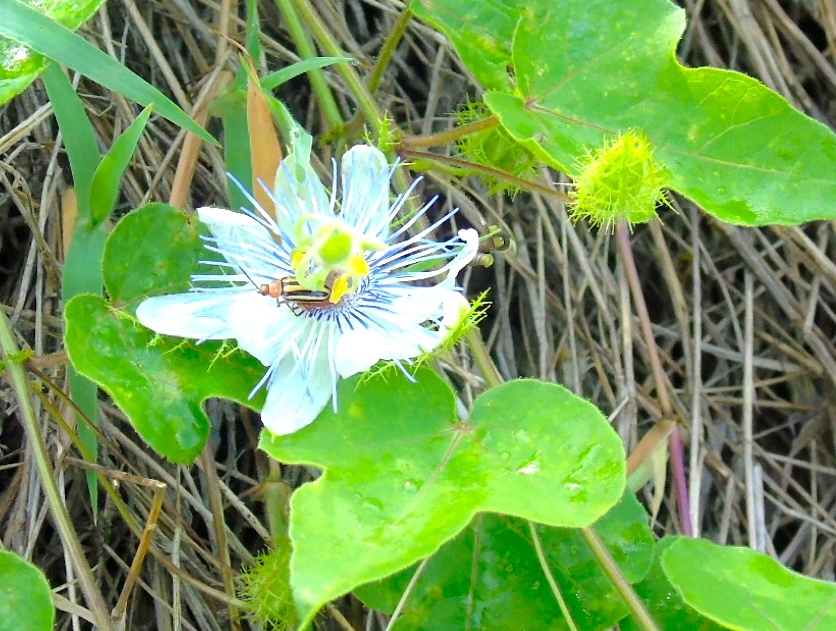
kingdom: Plantae
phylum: Tracheophyta
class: Magnoliopsida
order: Malpighiales
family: Passifloraceae
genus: Passiflora
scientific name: Passiflora foetida
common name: Fetid passionflower
